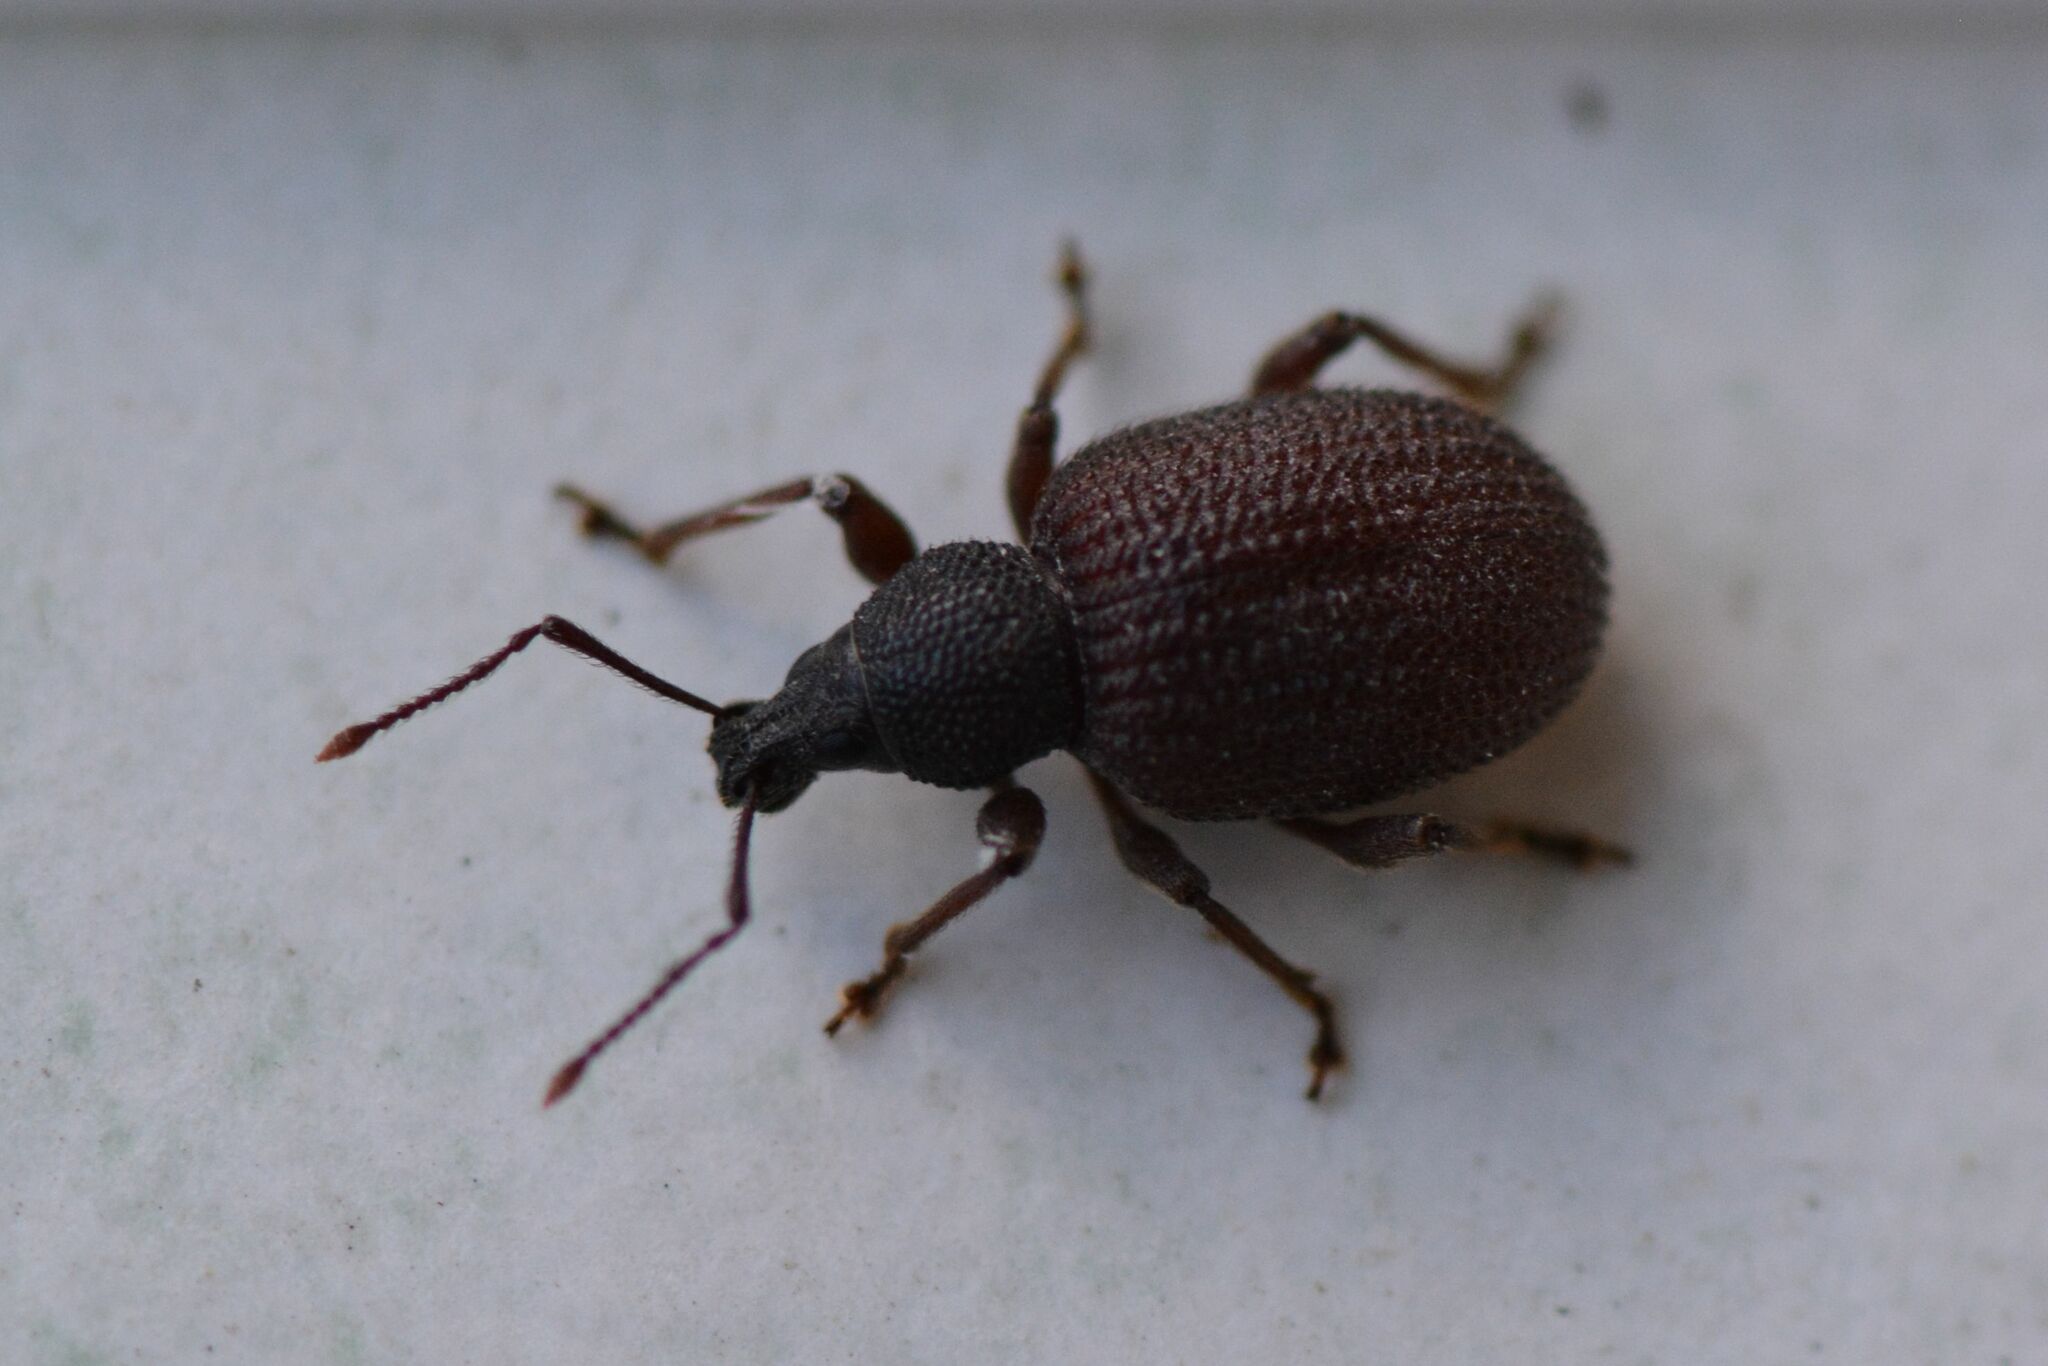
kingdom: Animalia
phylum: Arthropoda
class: Insecta
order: Coleoptera
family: Curculionidae
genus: Otiorhynchus
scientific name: Otiorhynchus rugosostriatus
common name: Weevil
